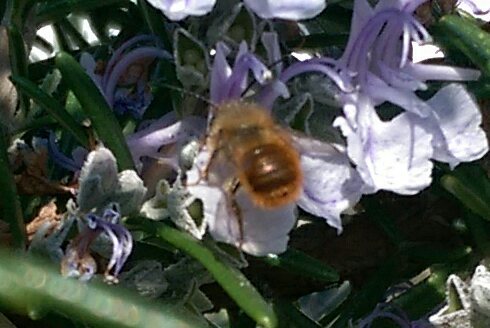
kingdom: Animalia
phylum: Arthropoda
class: Insecta
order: Hymenoptera
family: Megachilidae
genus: Osmia
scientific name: Osmia bicornis
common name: Red mason bee
